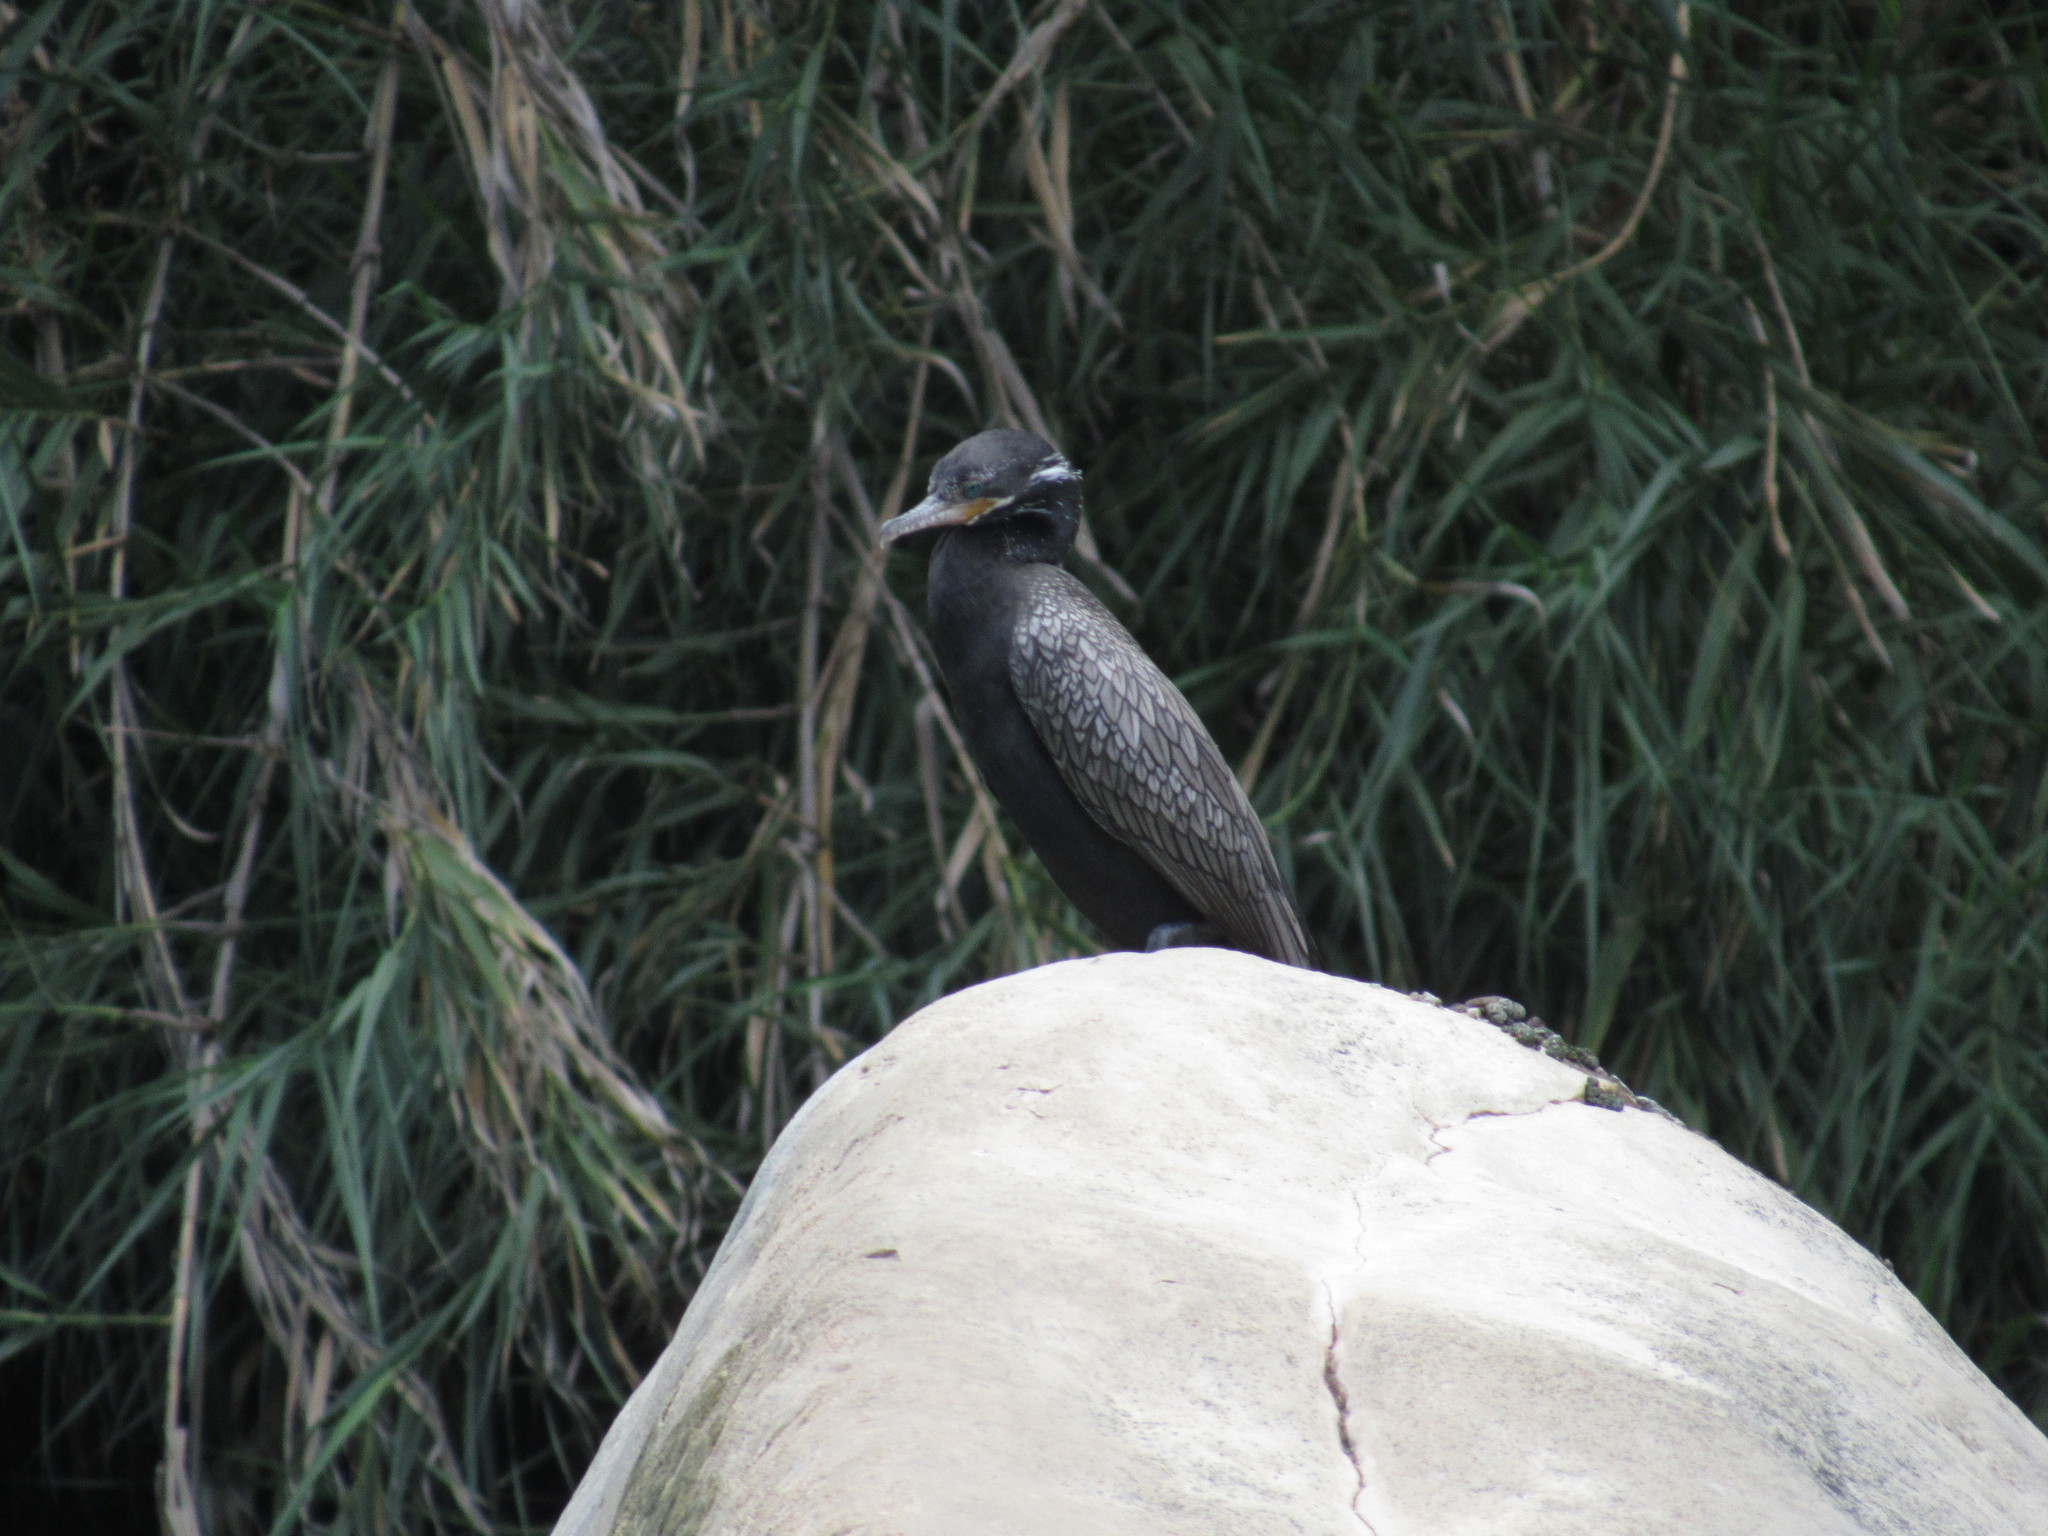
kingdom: Animalia
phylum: Chordata
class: Aves
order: Suliformes
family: Phalacrocoracidae
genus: Phalacrocorax
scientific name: Phalacrocorax brasilianus
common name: Neotropic cormorant
